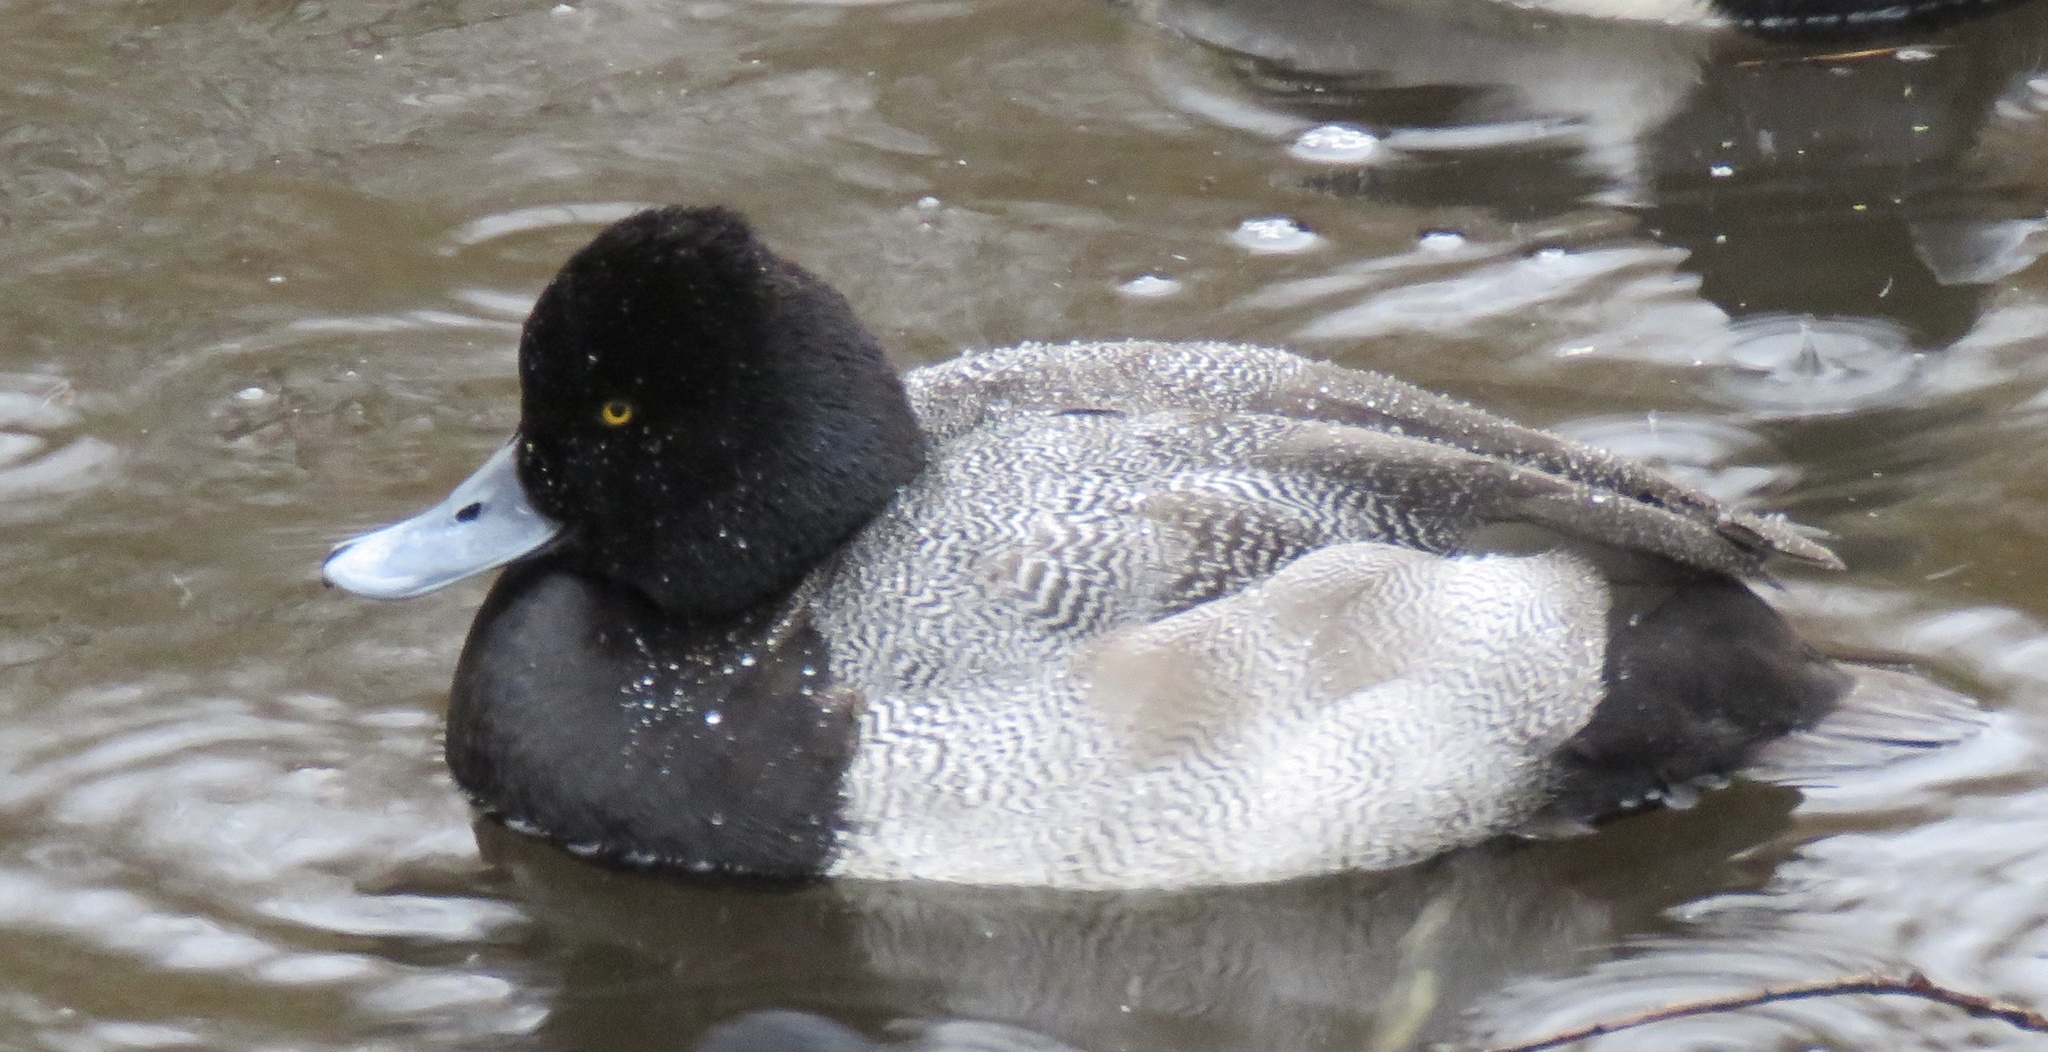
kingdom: Animalia
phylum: Chordata
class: Aves
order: Anseriformes
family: Anatidae
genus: Aythya
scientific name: Aythya affinis
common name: Lesser scaup
